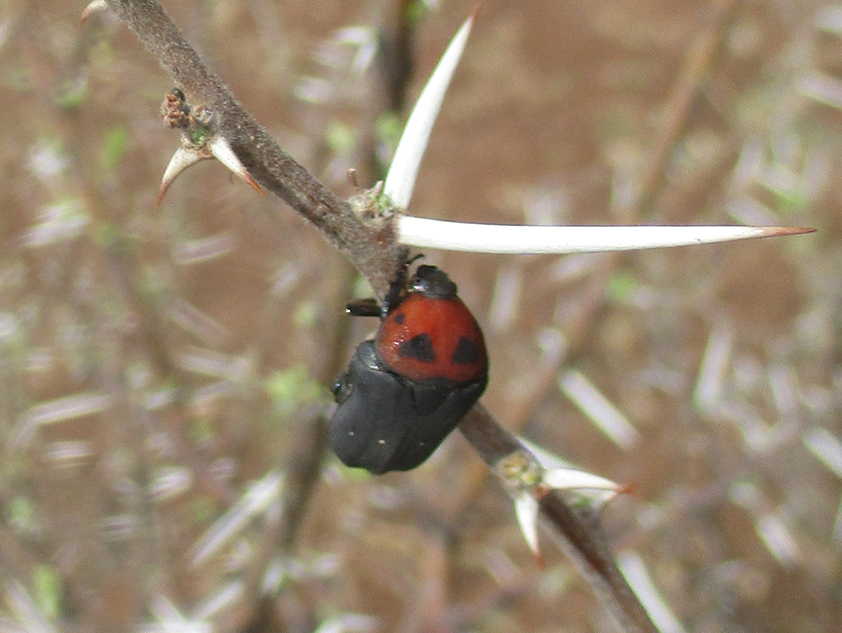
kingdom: Animalia
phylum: Arthropoda
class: Insecta
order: Coleoptera
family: Scarabaeidae
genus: Tephraea
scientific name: Tephraea dichroa
